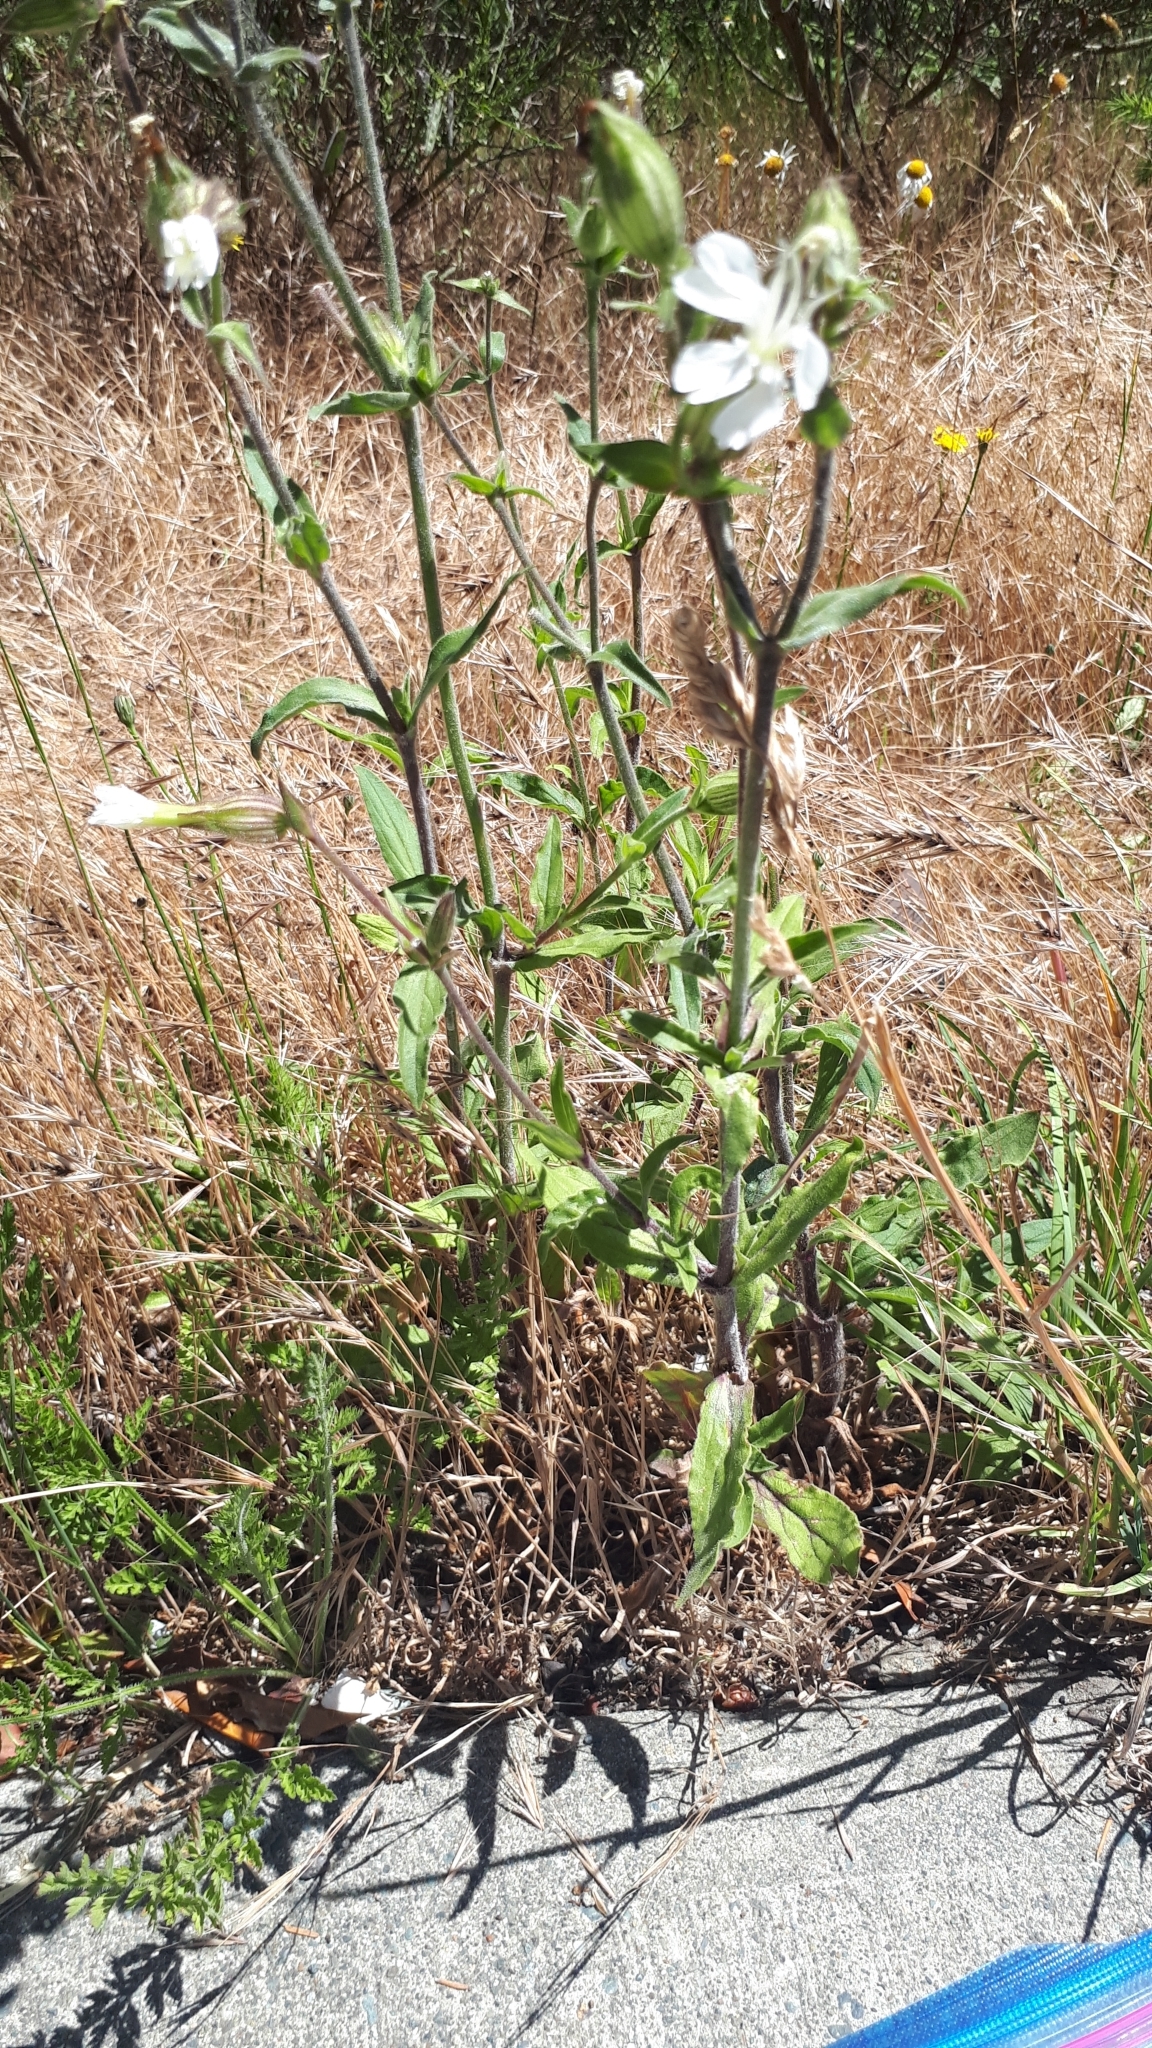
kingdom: Plantae
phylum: Tracheophyta
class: Magnoliopsida
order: Caryophyllales
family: Caryophyllaceae
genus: Silene
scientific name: Silene latifolia
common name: White campion
